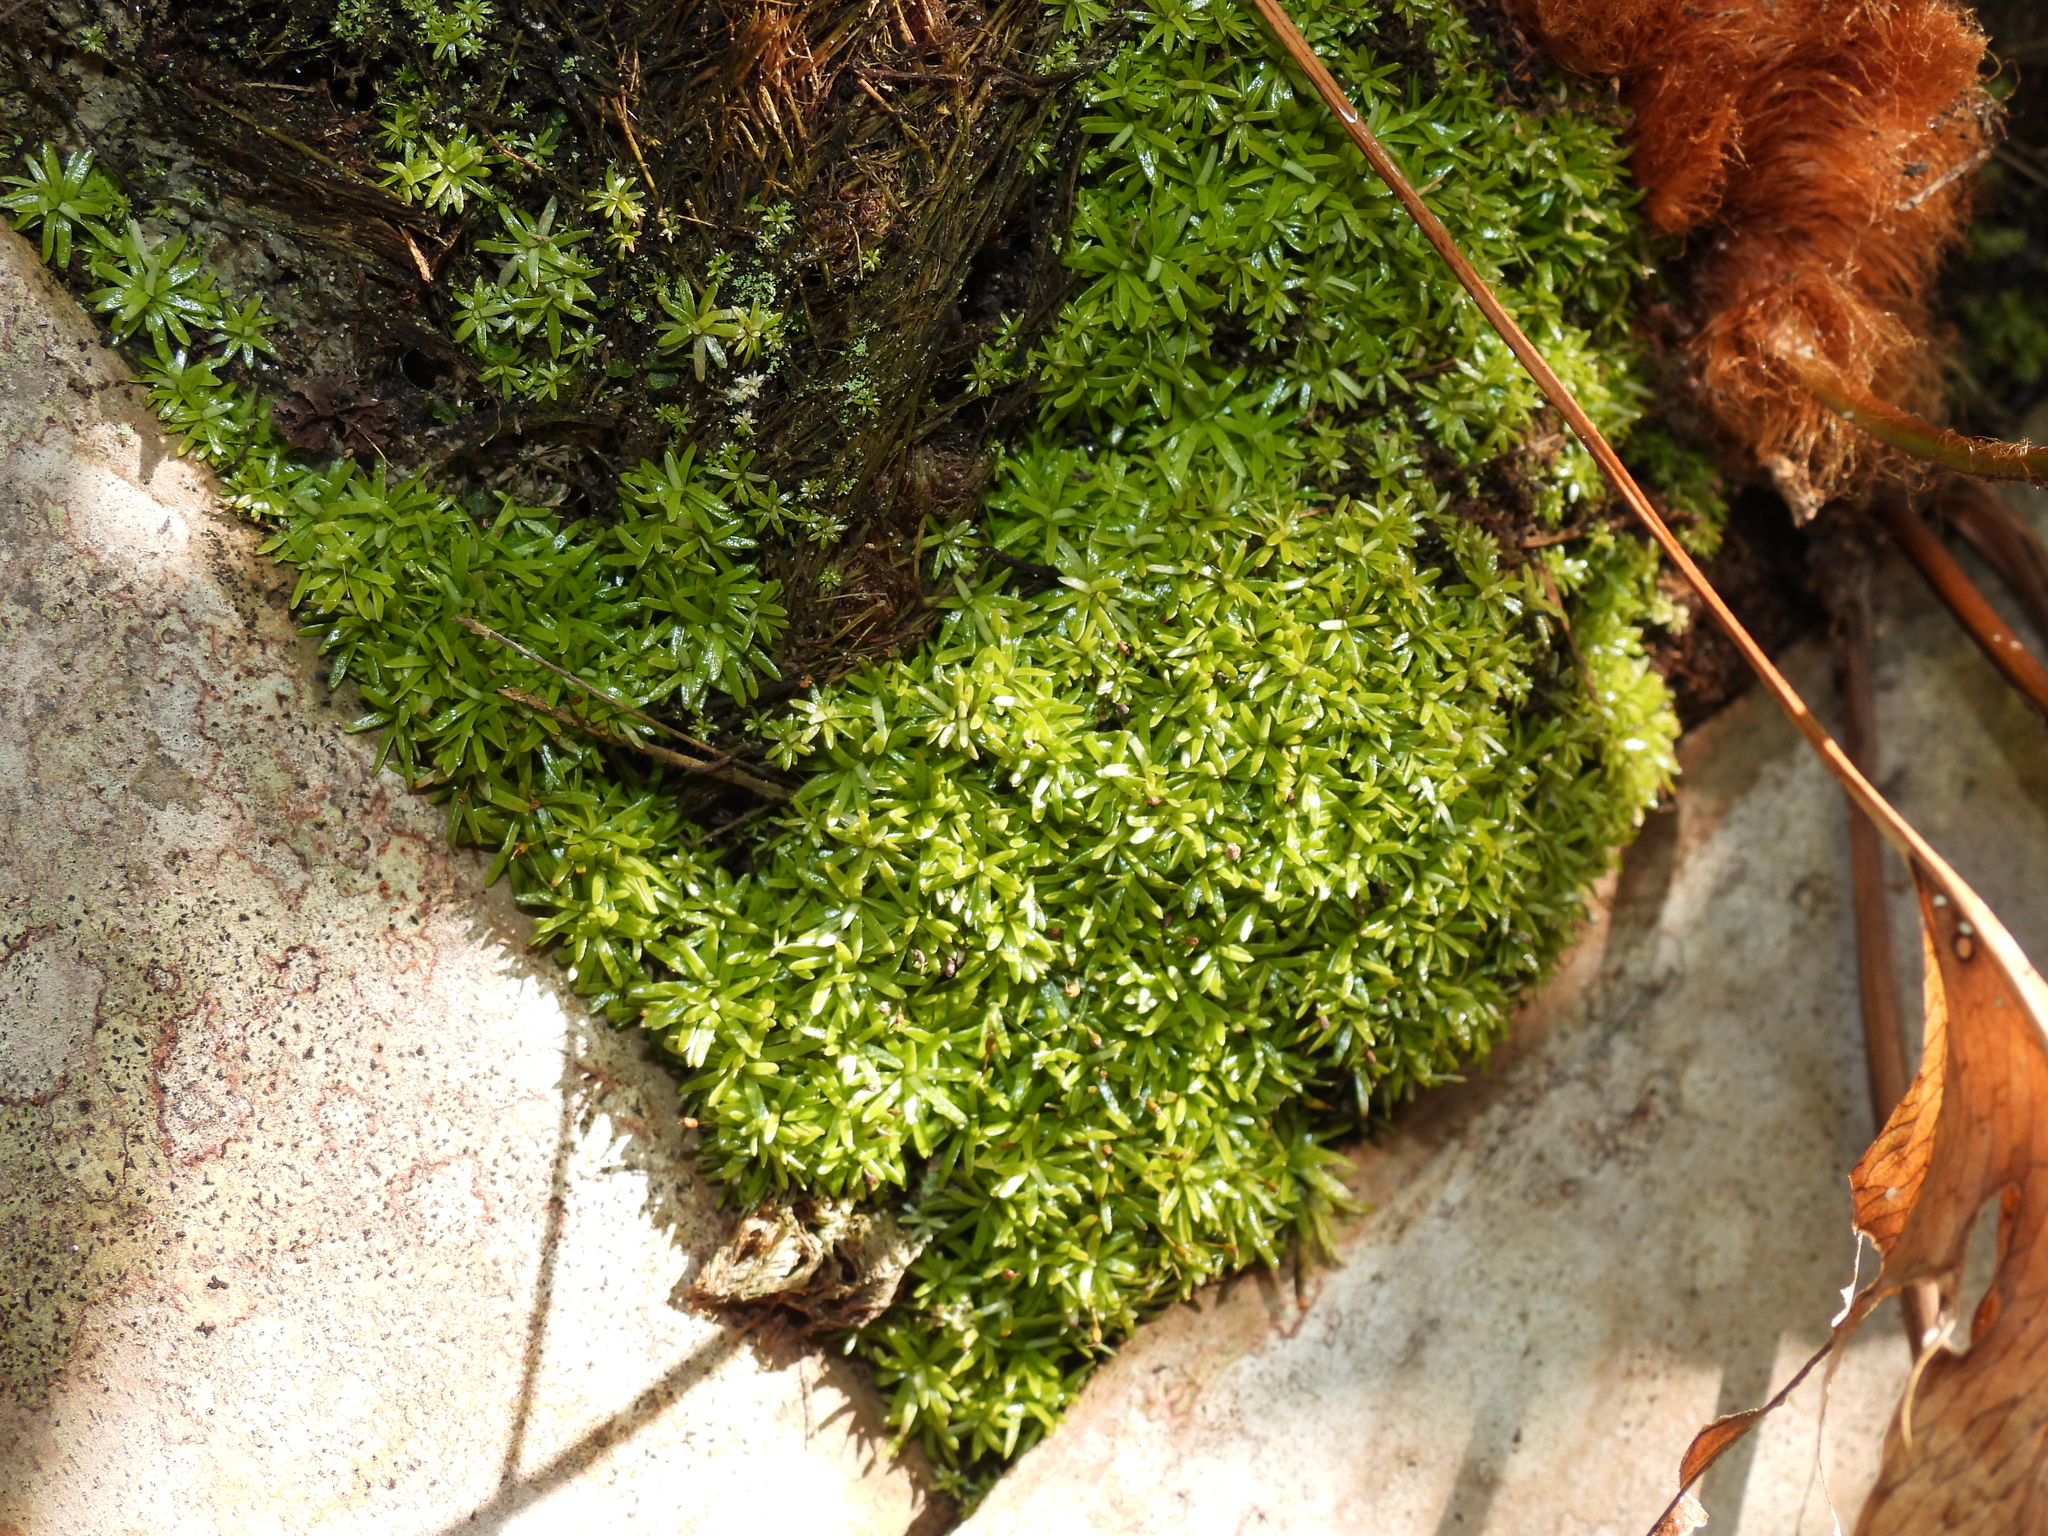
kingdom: Plantae
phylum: Bryophyta
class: Bryopsida
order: Dicranales
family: Octoblepharaceae
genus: Octoblepharum
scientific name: Octoblepharum albidum
